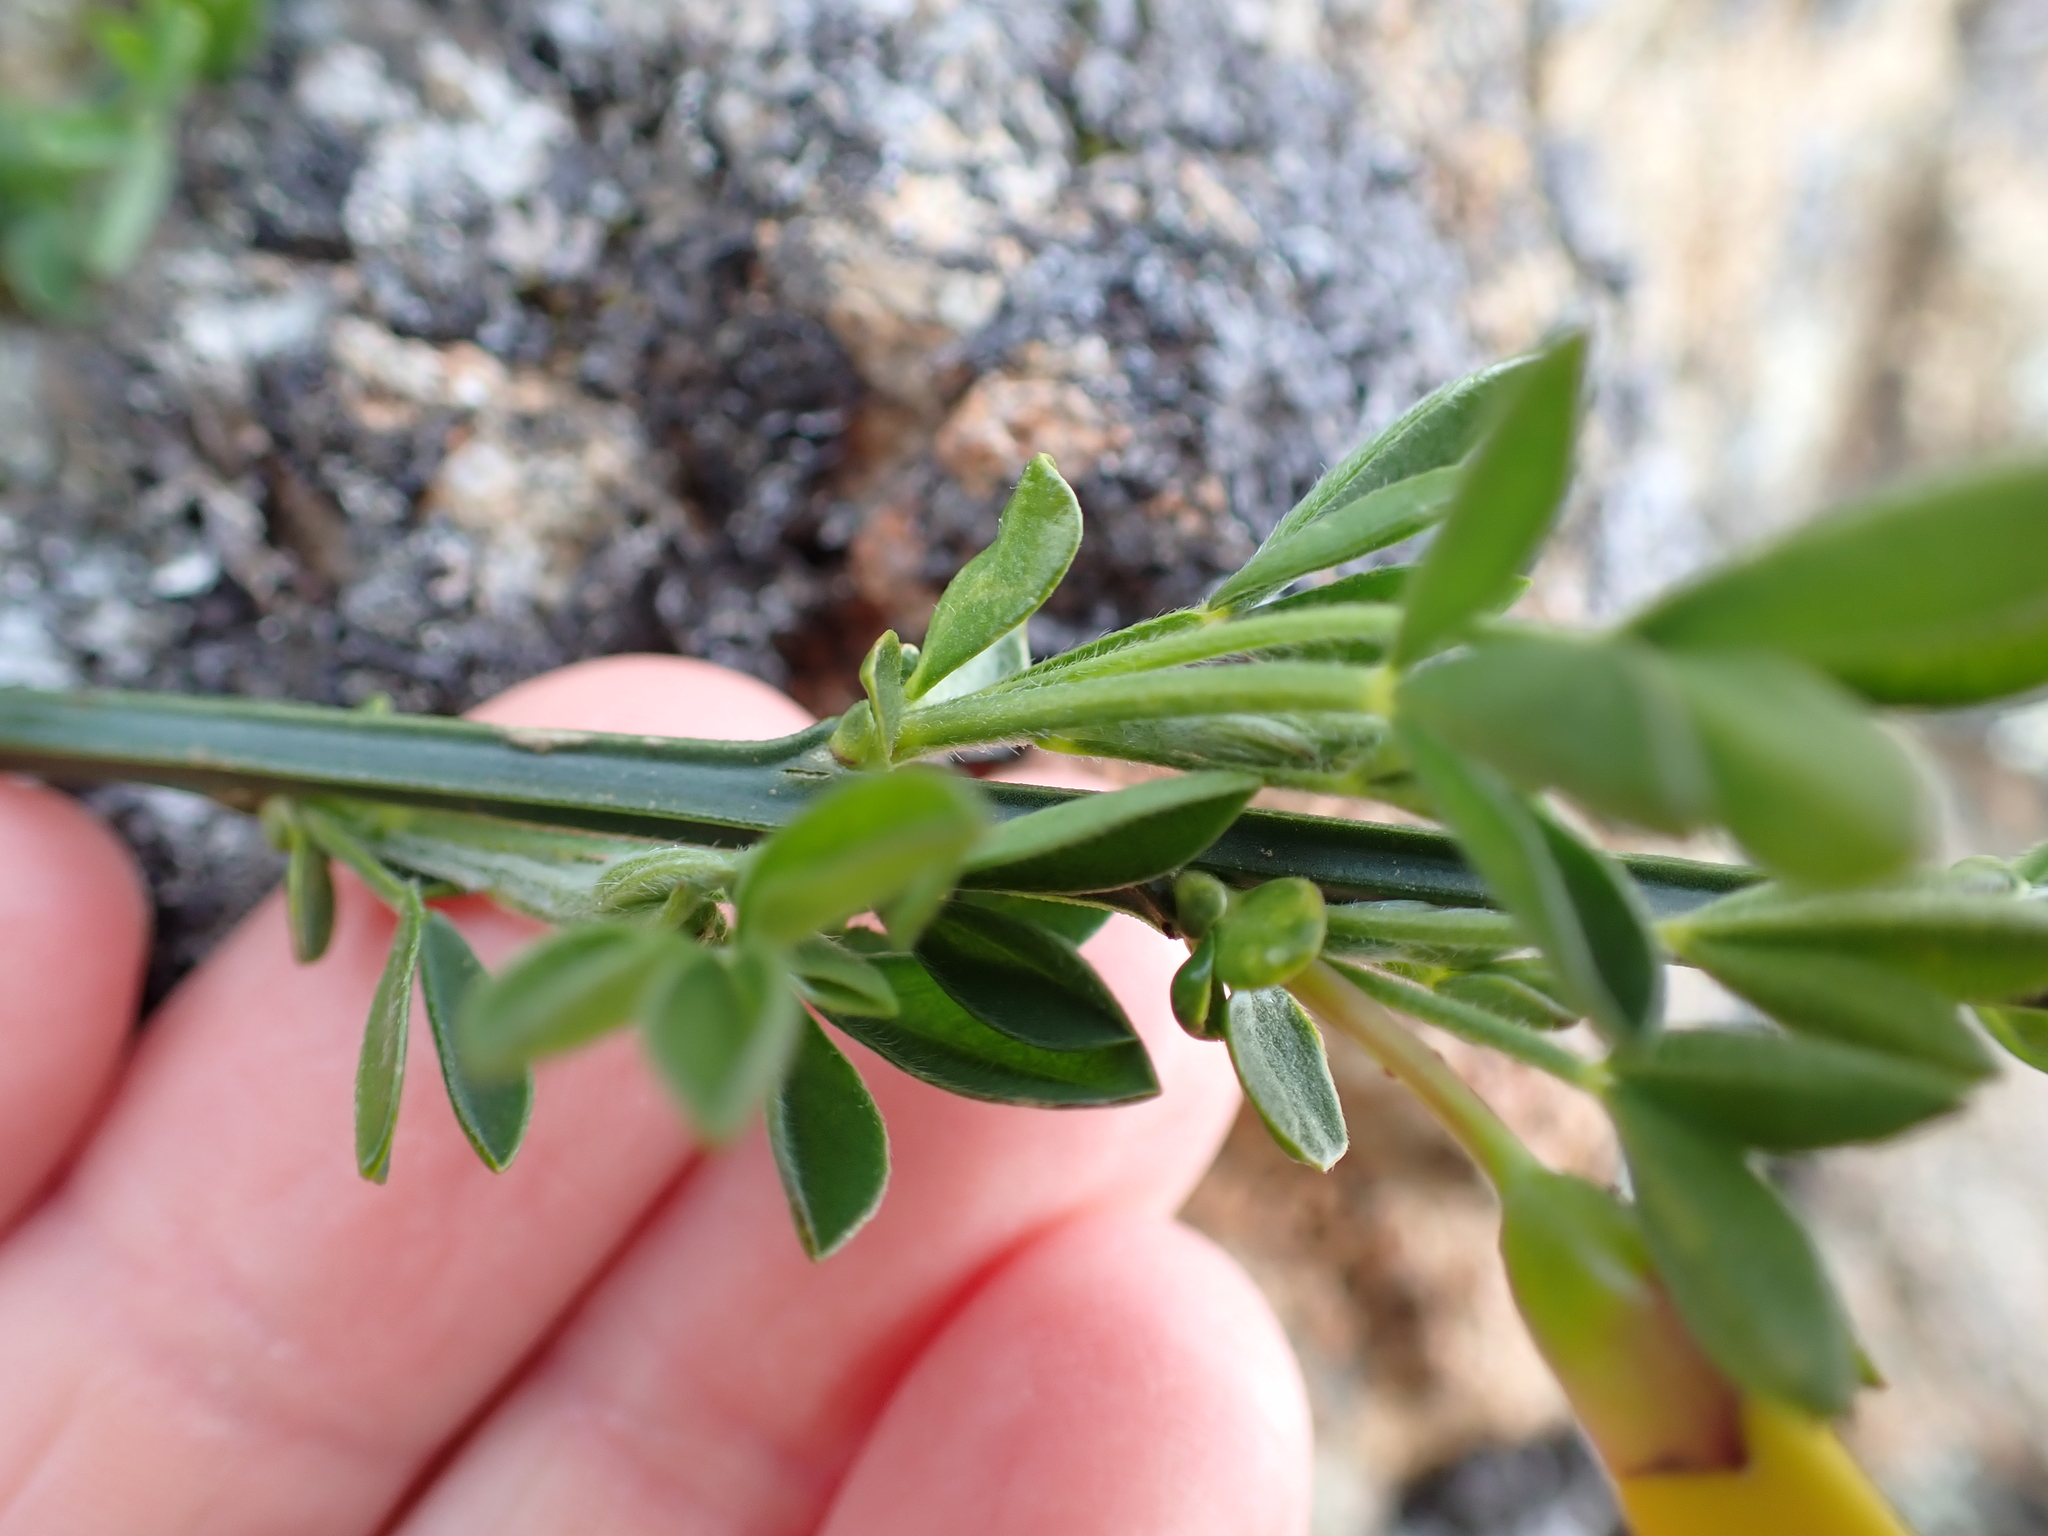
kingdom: Plantae
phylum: Tracheophyta
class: Magnoliopsida
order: Fabales
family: Fabaceae
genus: Cytisus
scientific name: Cytisus scoparius
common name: Scotch broom
